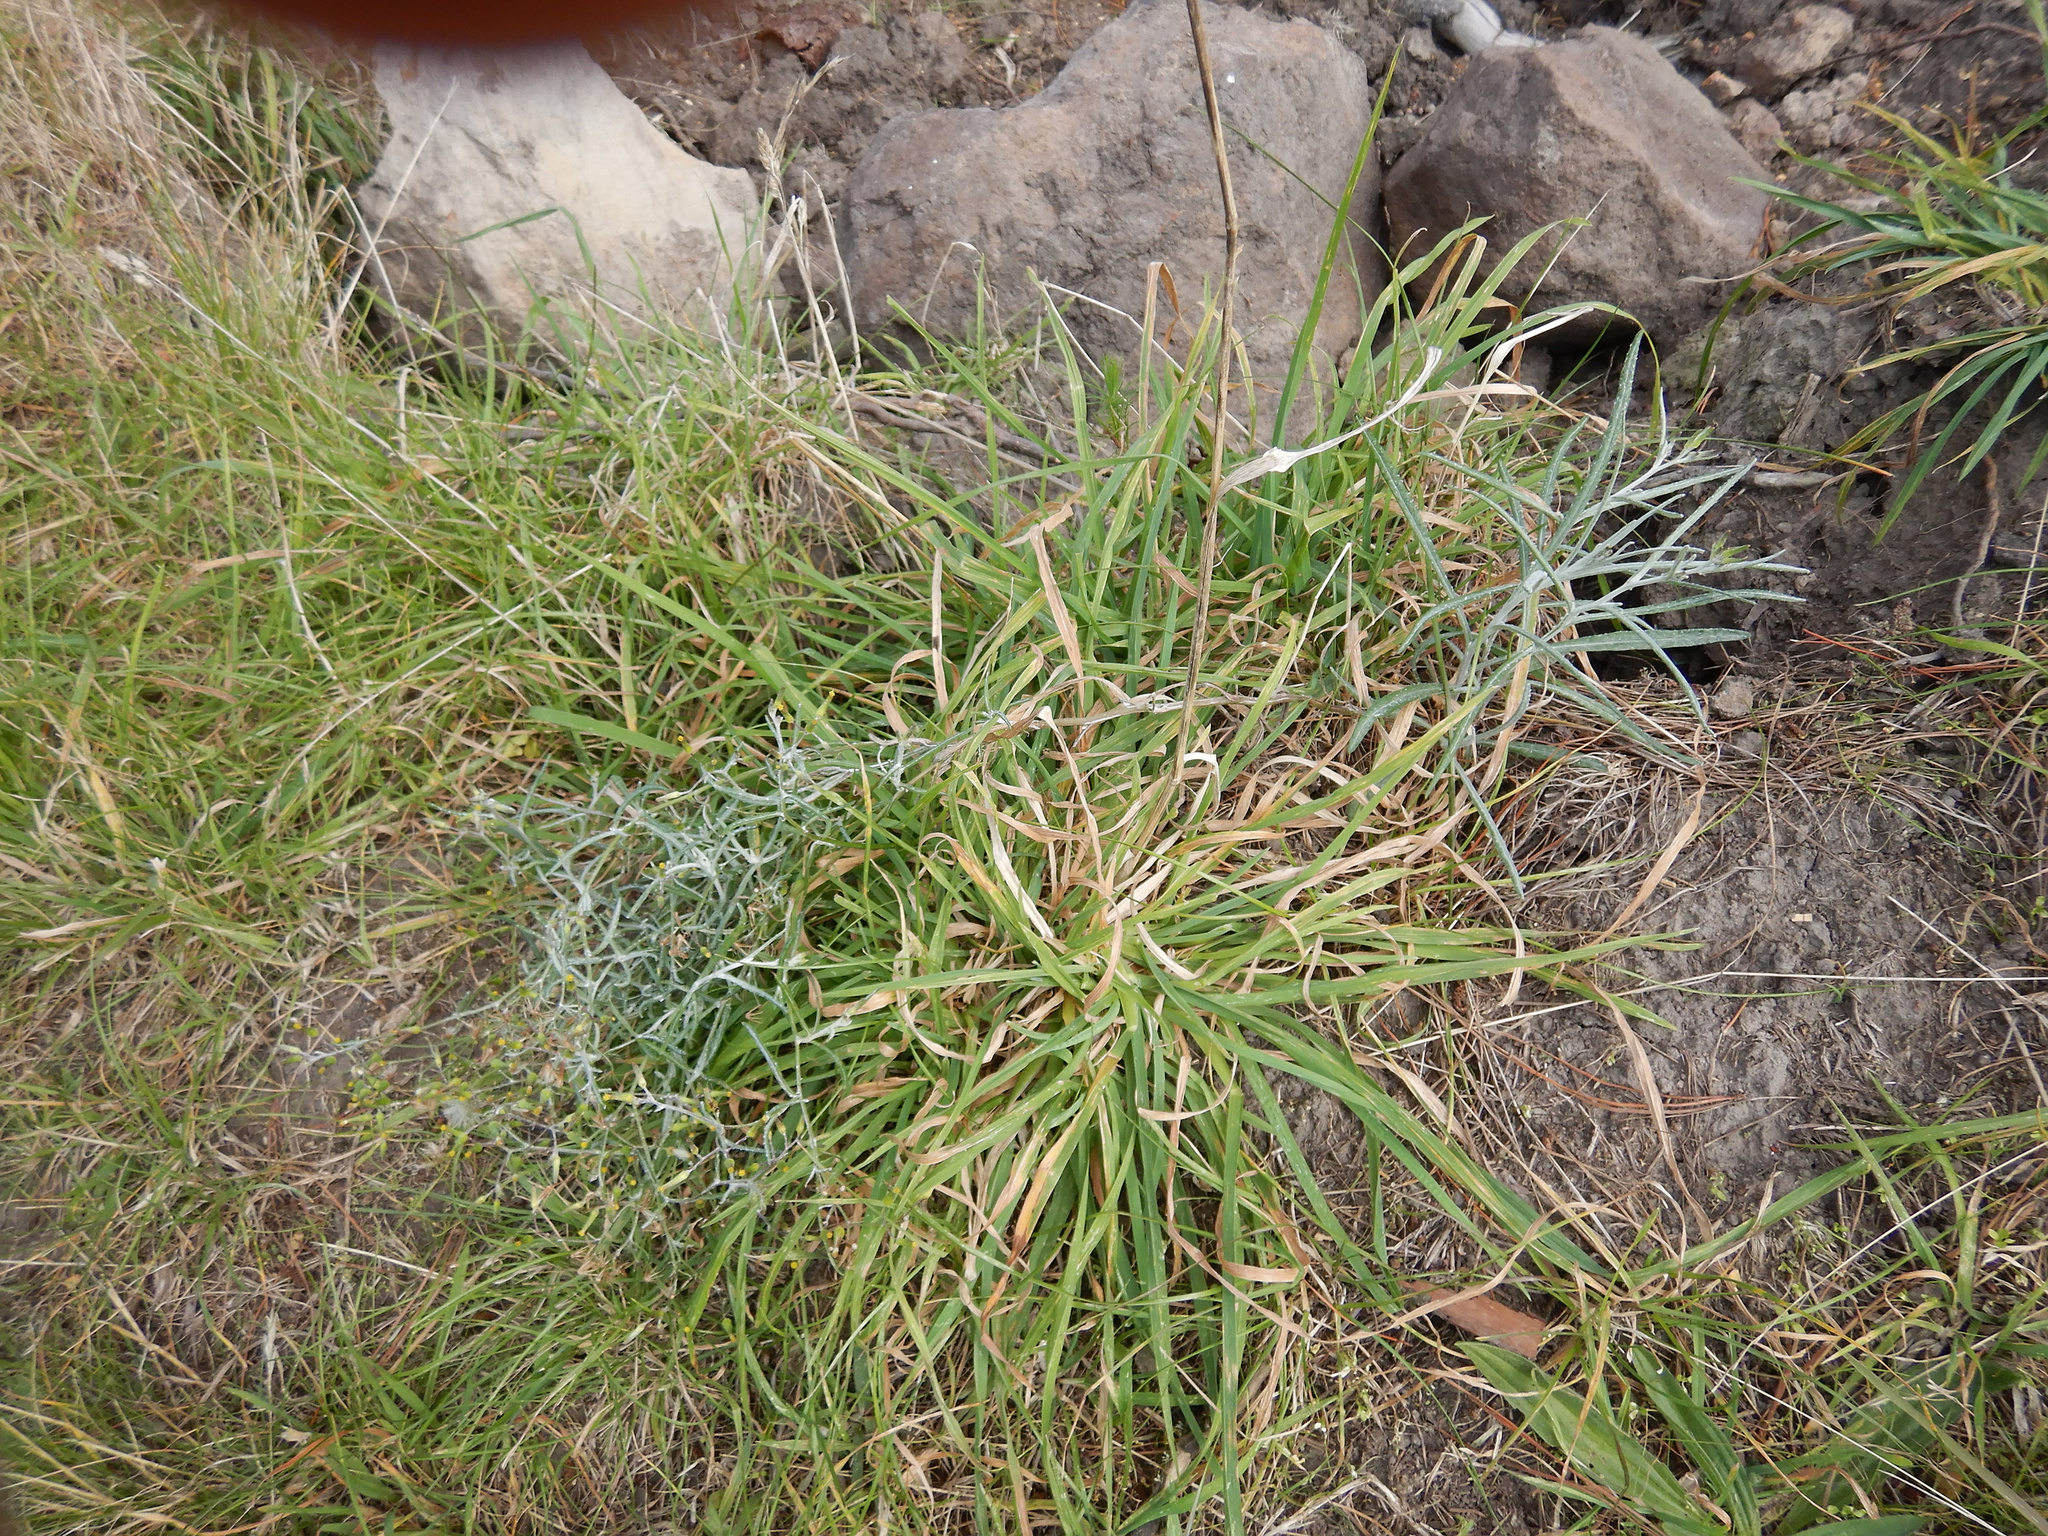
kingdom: Plantae
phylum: Tracheophyta
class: Magnoliopsida
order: Asterales
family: Asteraceae
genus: Senecio
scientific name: Senecio quadridentatus
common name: Cotton fireweed
